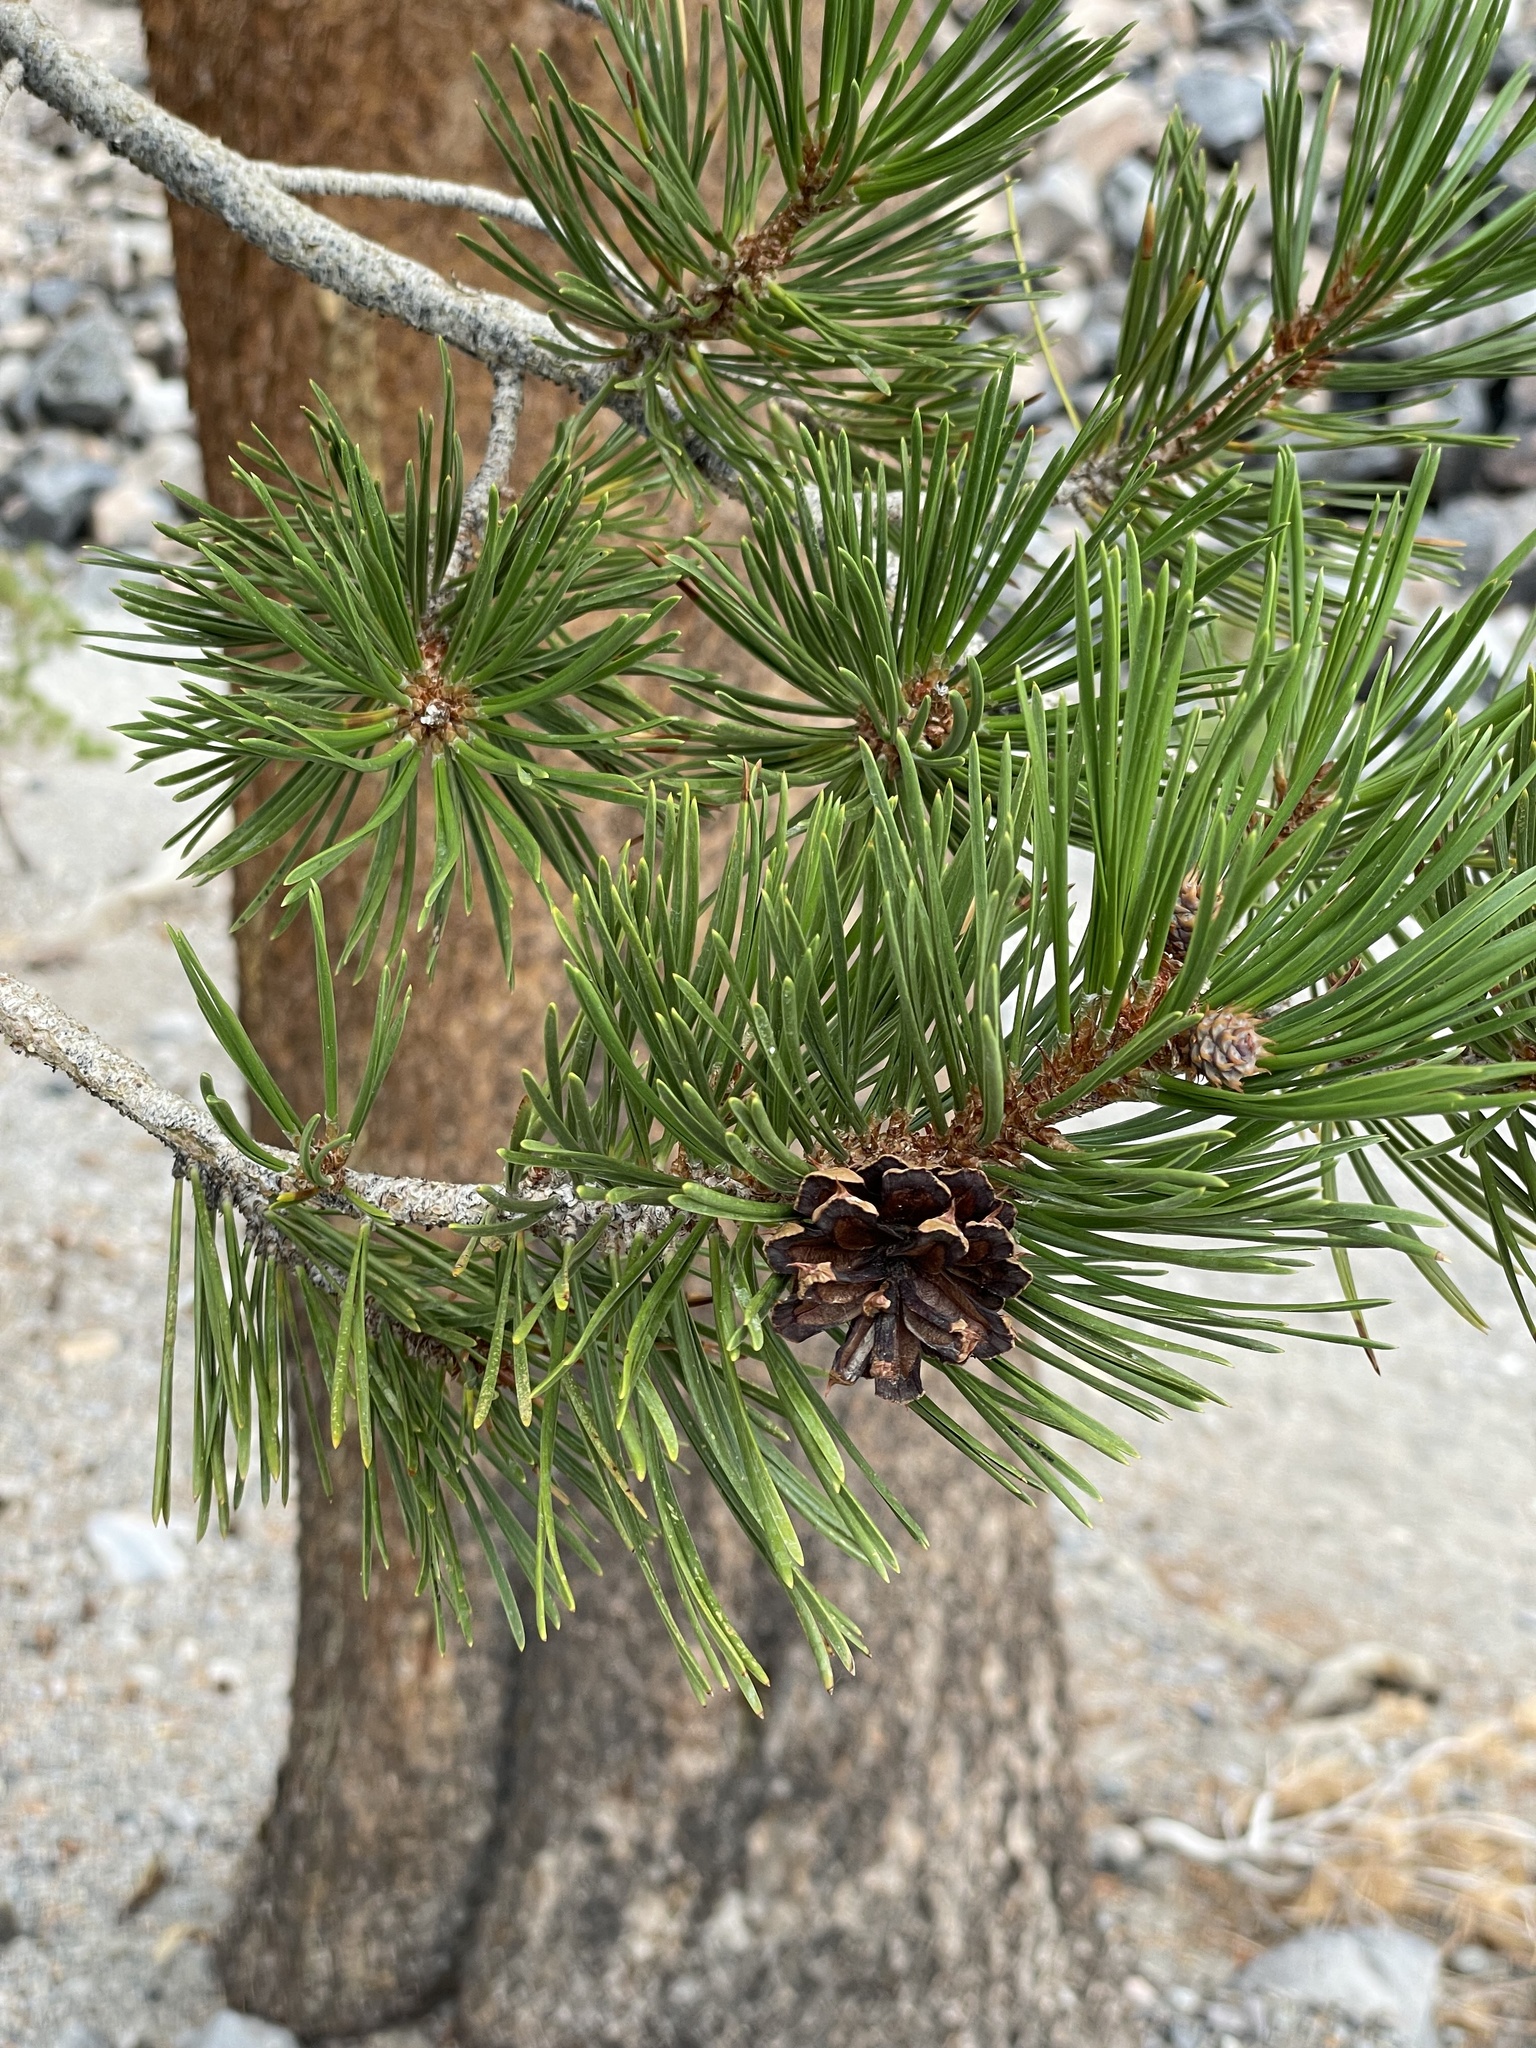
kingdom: Plantae
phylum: Tracheophyta
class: Pinopsida
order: Pinales
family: Pinaceae
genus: Pinus
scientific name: Pinus contorta
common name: Lodgepole pine
